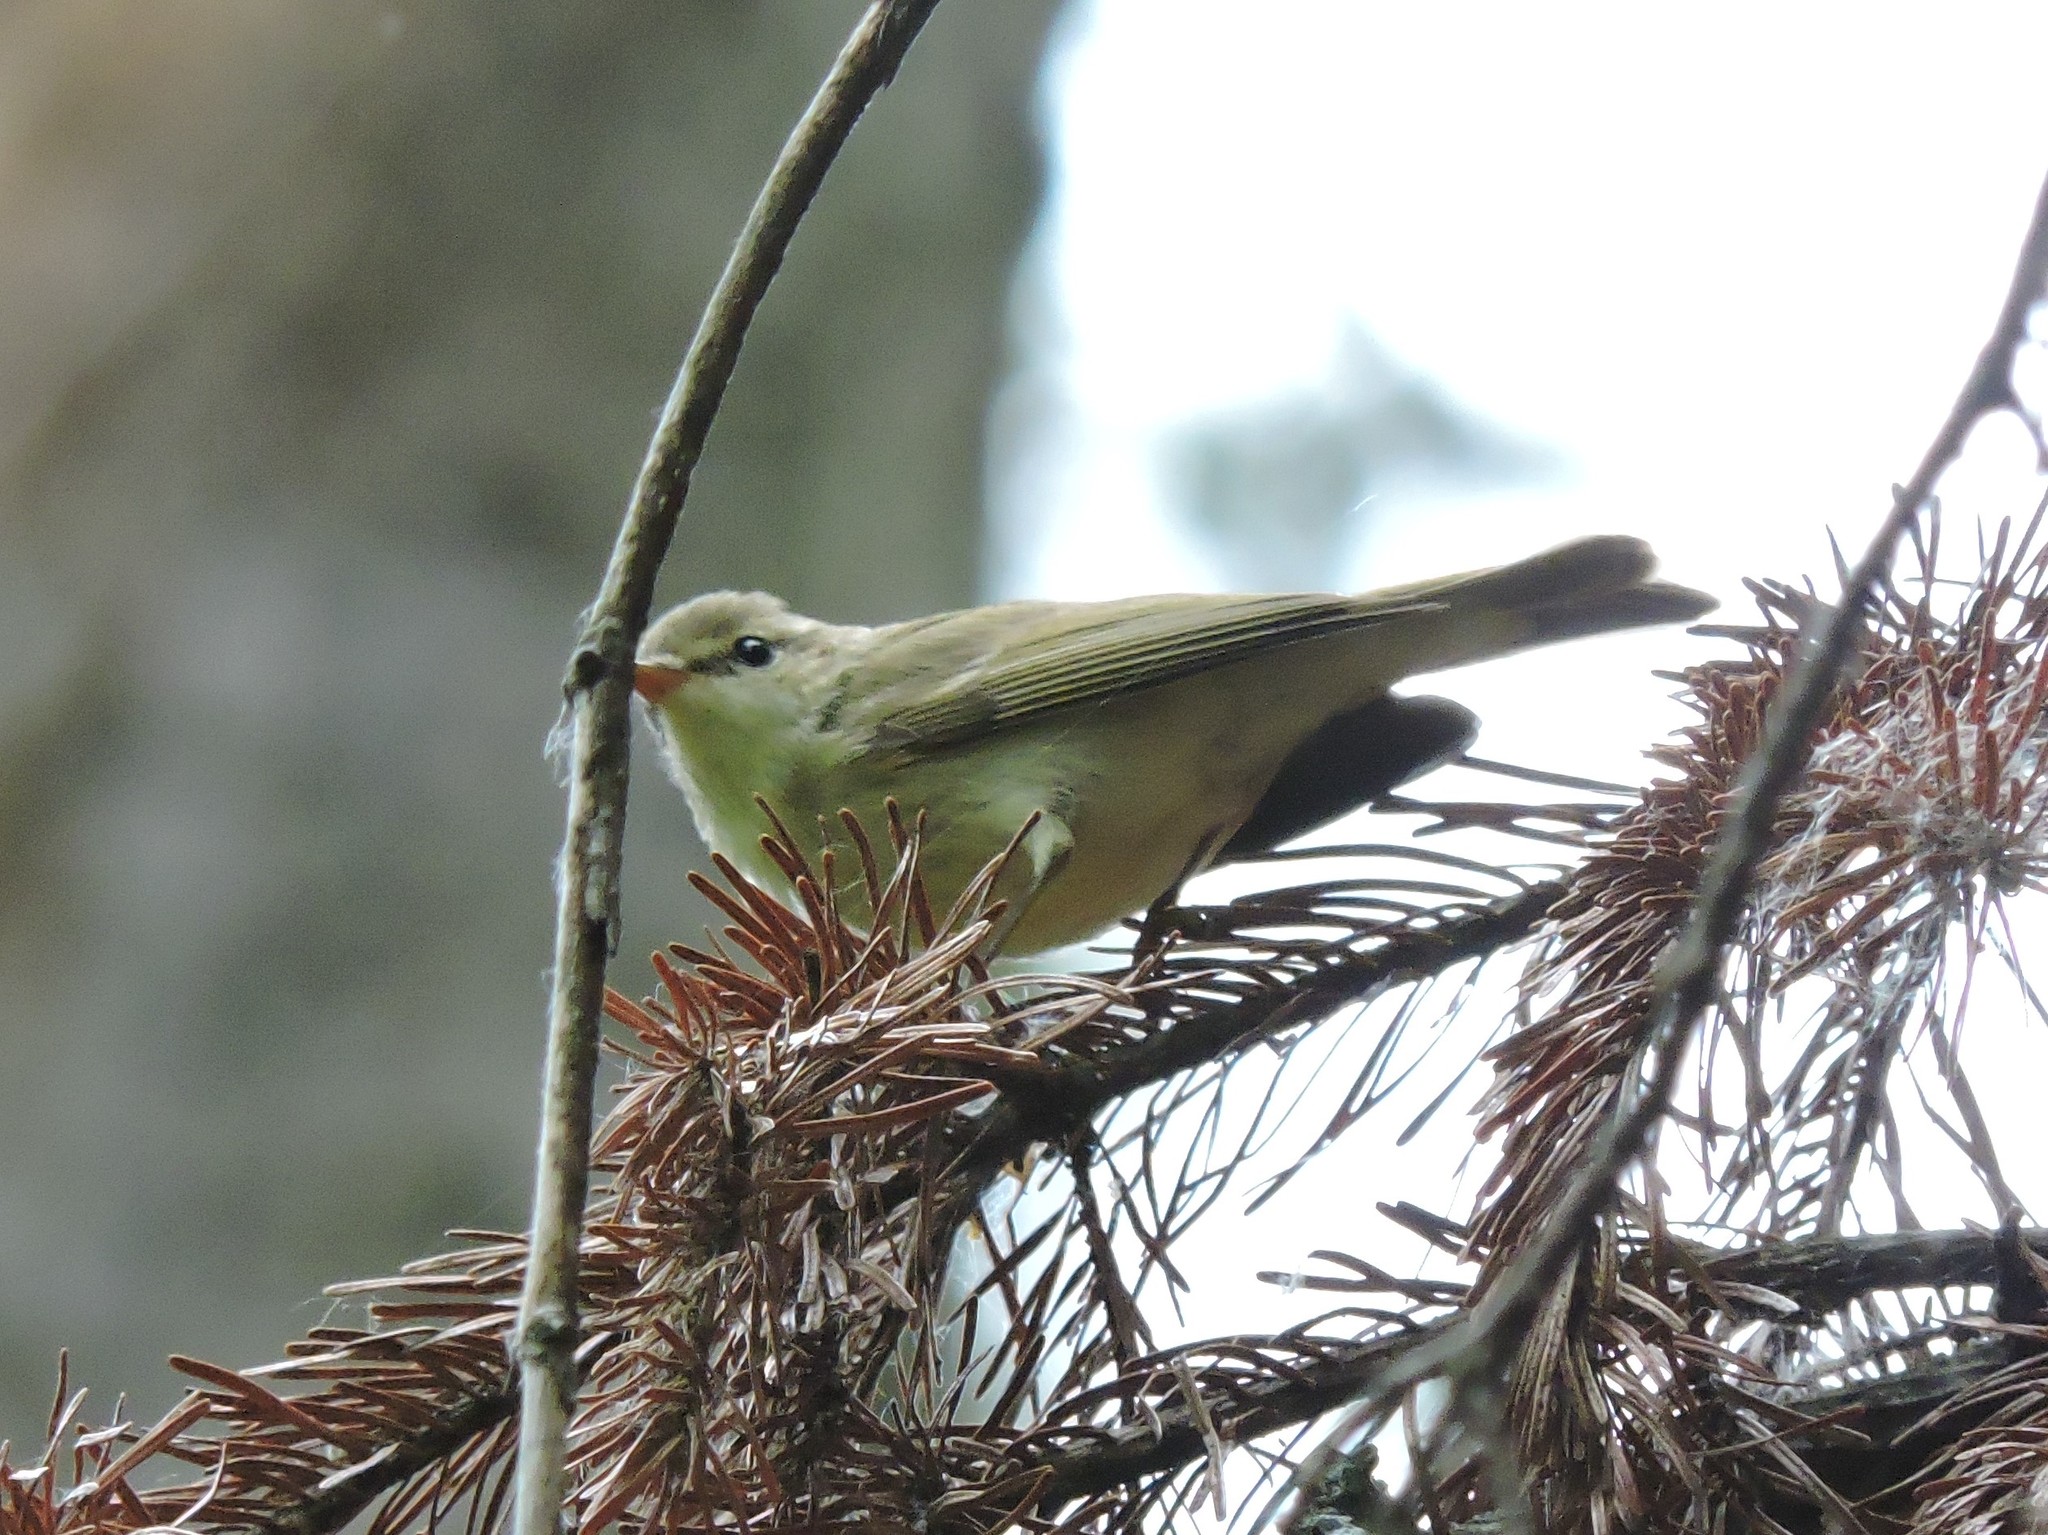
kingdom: Animalia
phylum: Chordata
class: Aves
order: Passeriformes
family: Phylloscopidae
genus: Phylloscopus
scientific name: Phylloscopus trochiloides
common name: Greenish warbler
